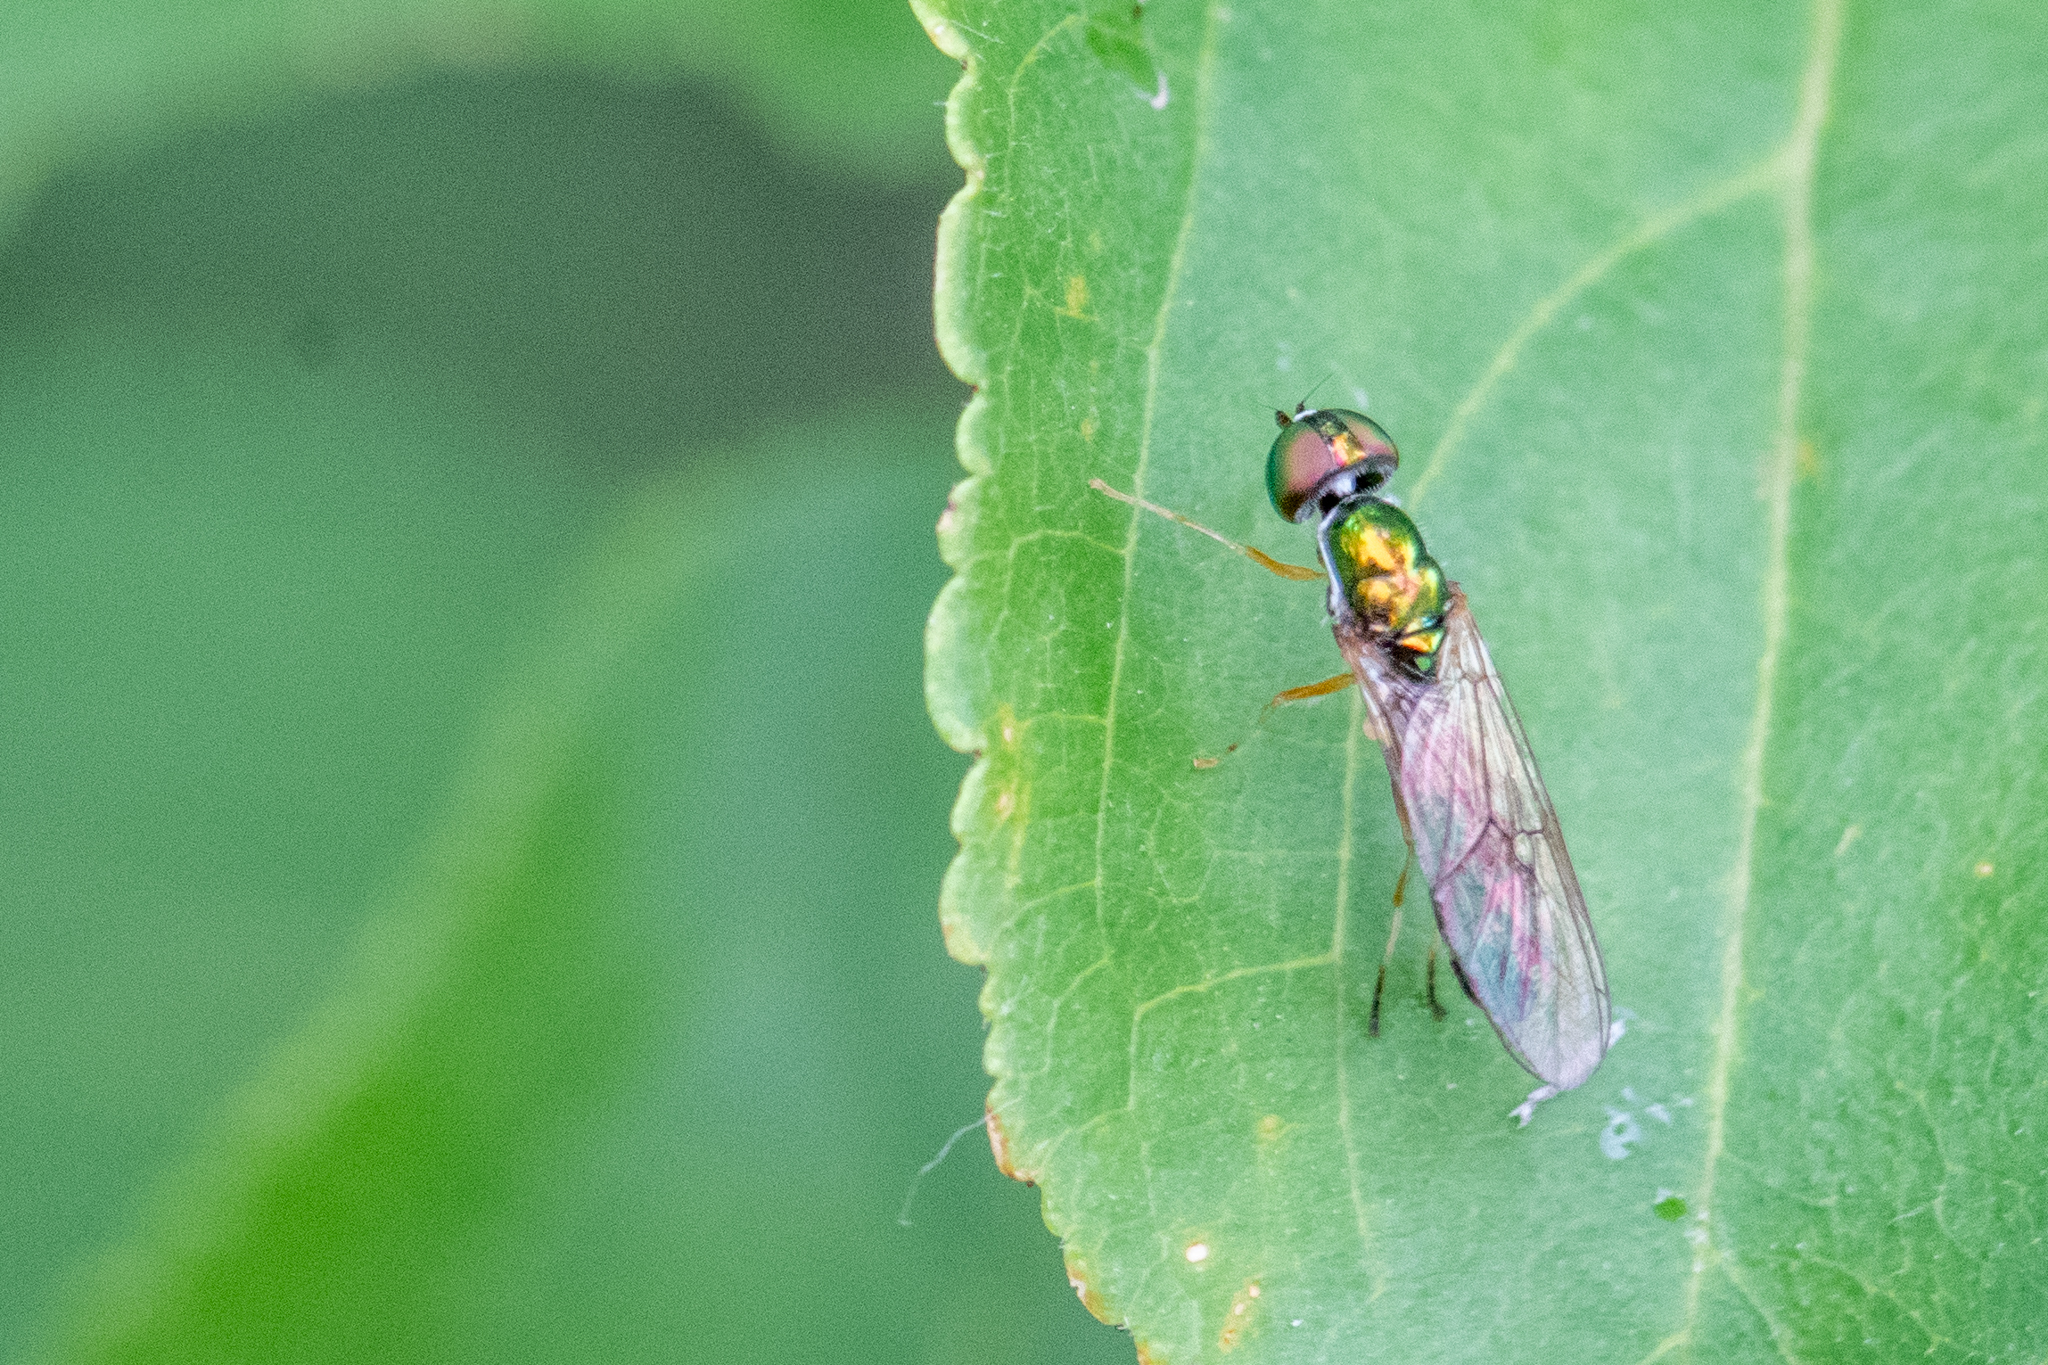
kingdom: Animalia
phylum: Arthropoda
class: Insecta
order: Diptera
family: Stratiomyidae
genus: Merosargus
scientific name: Merosargus caeruleifrons
